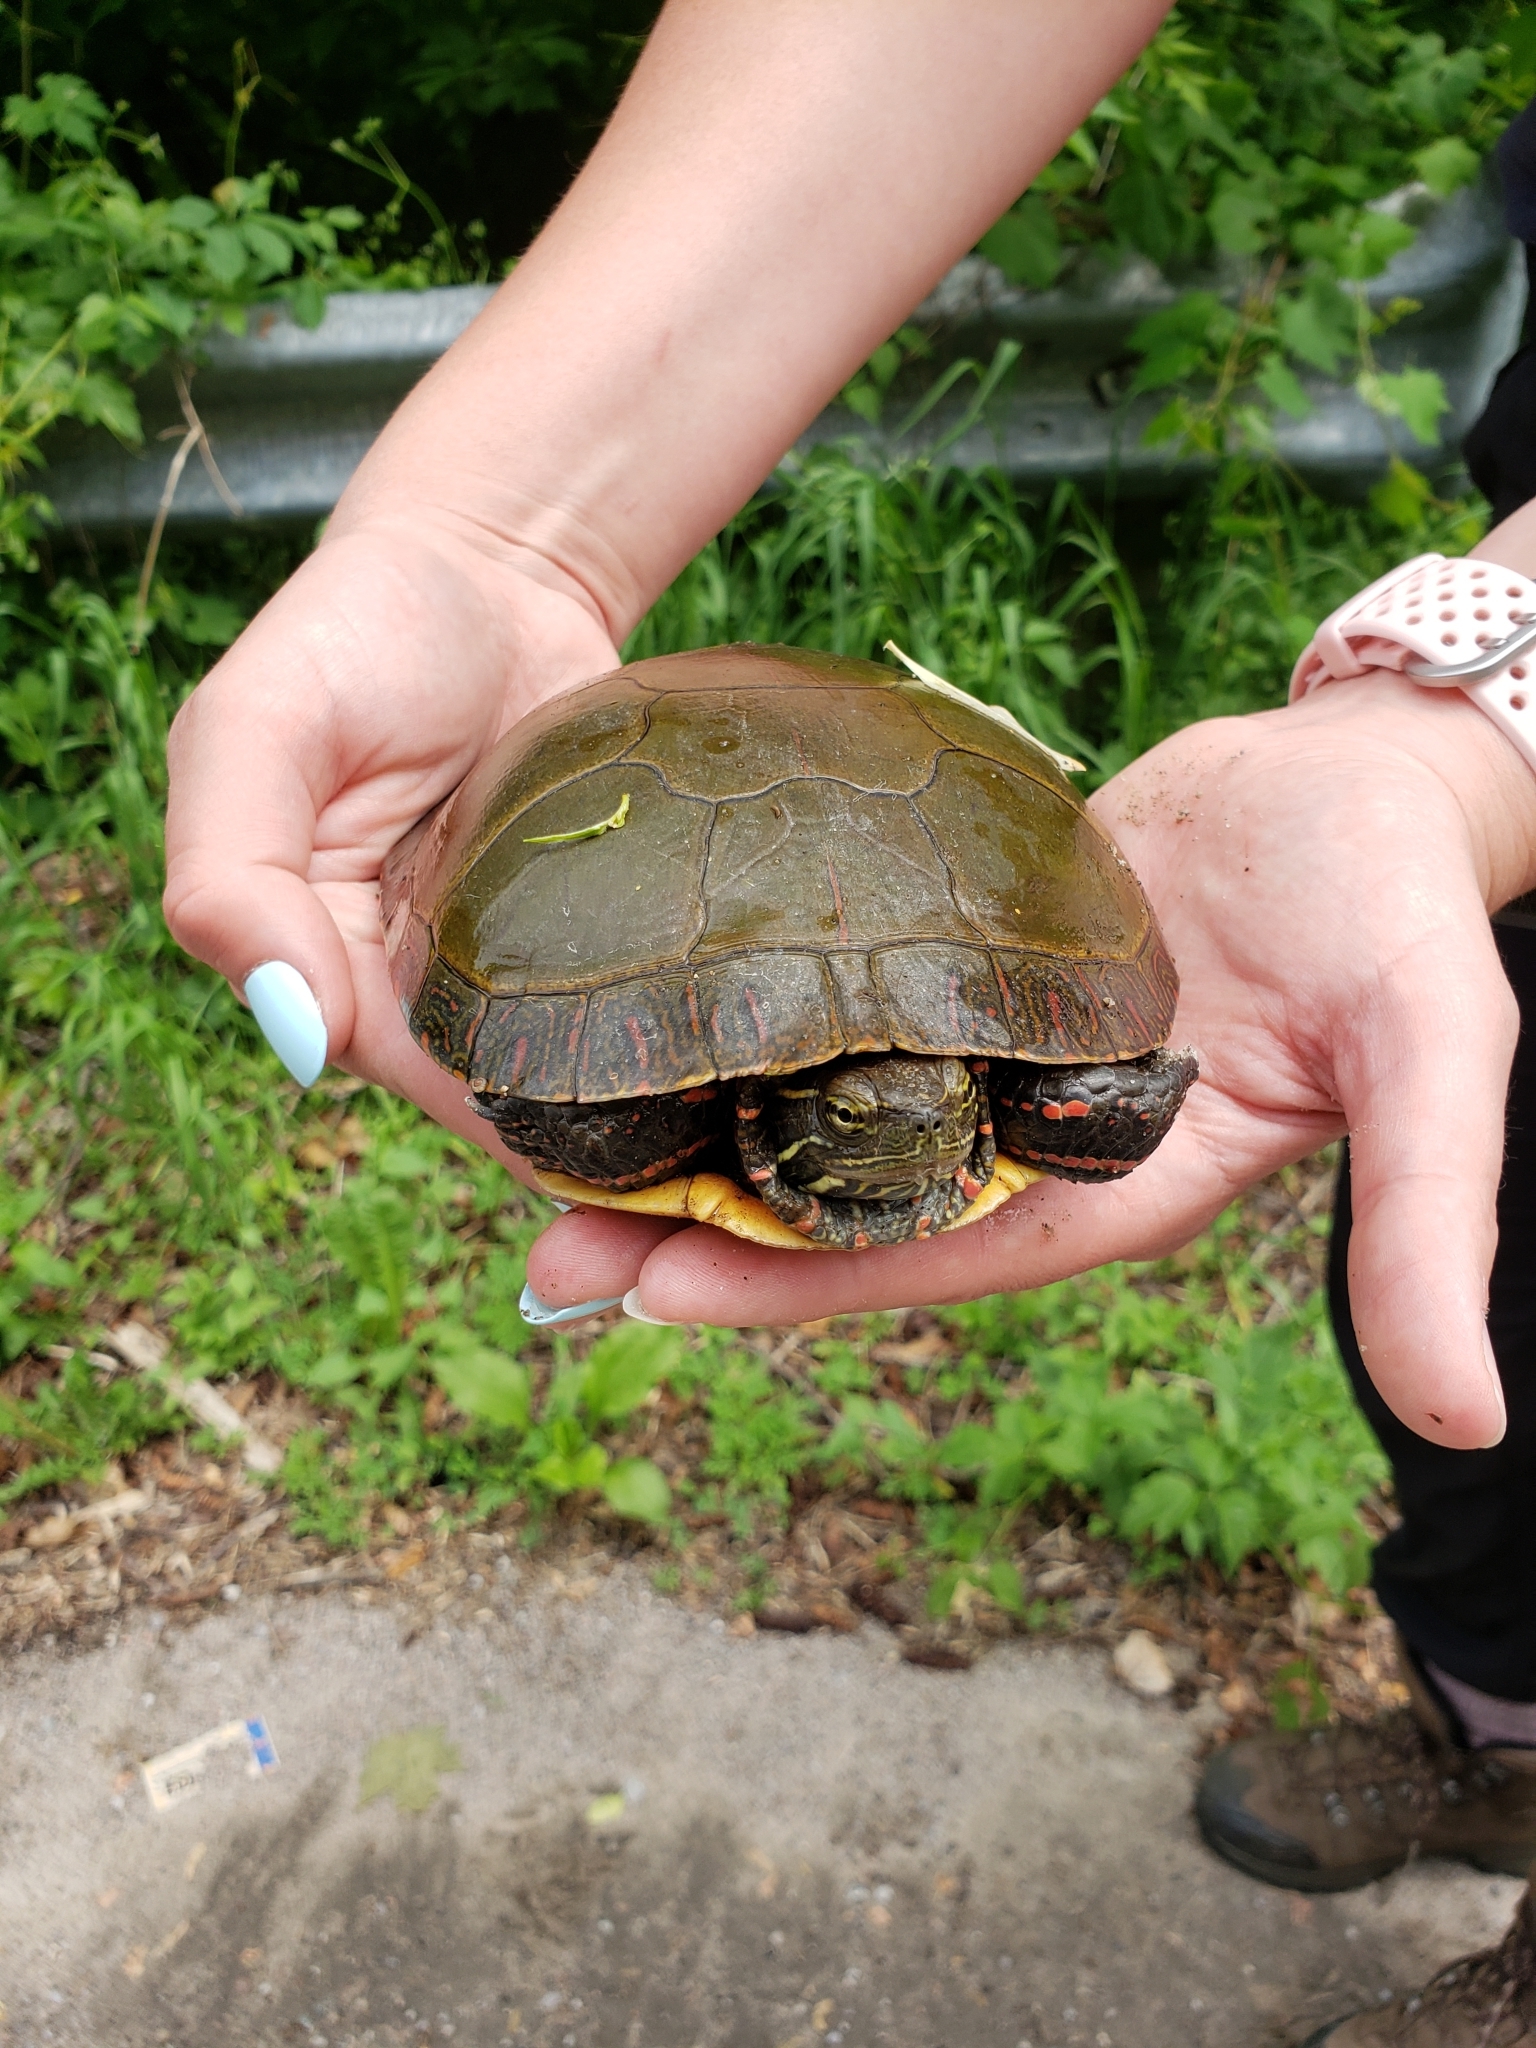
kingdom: Animalia
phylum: Chordata
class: Testudines
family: Emydidae
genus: Chrysemys
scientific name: Chrysemys picta
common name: Painted turtle
